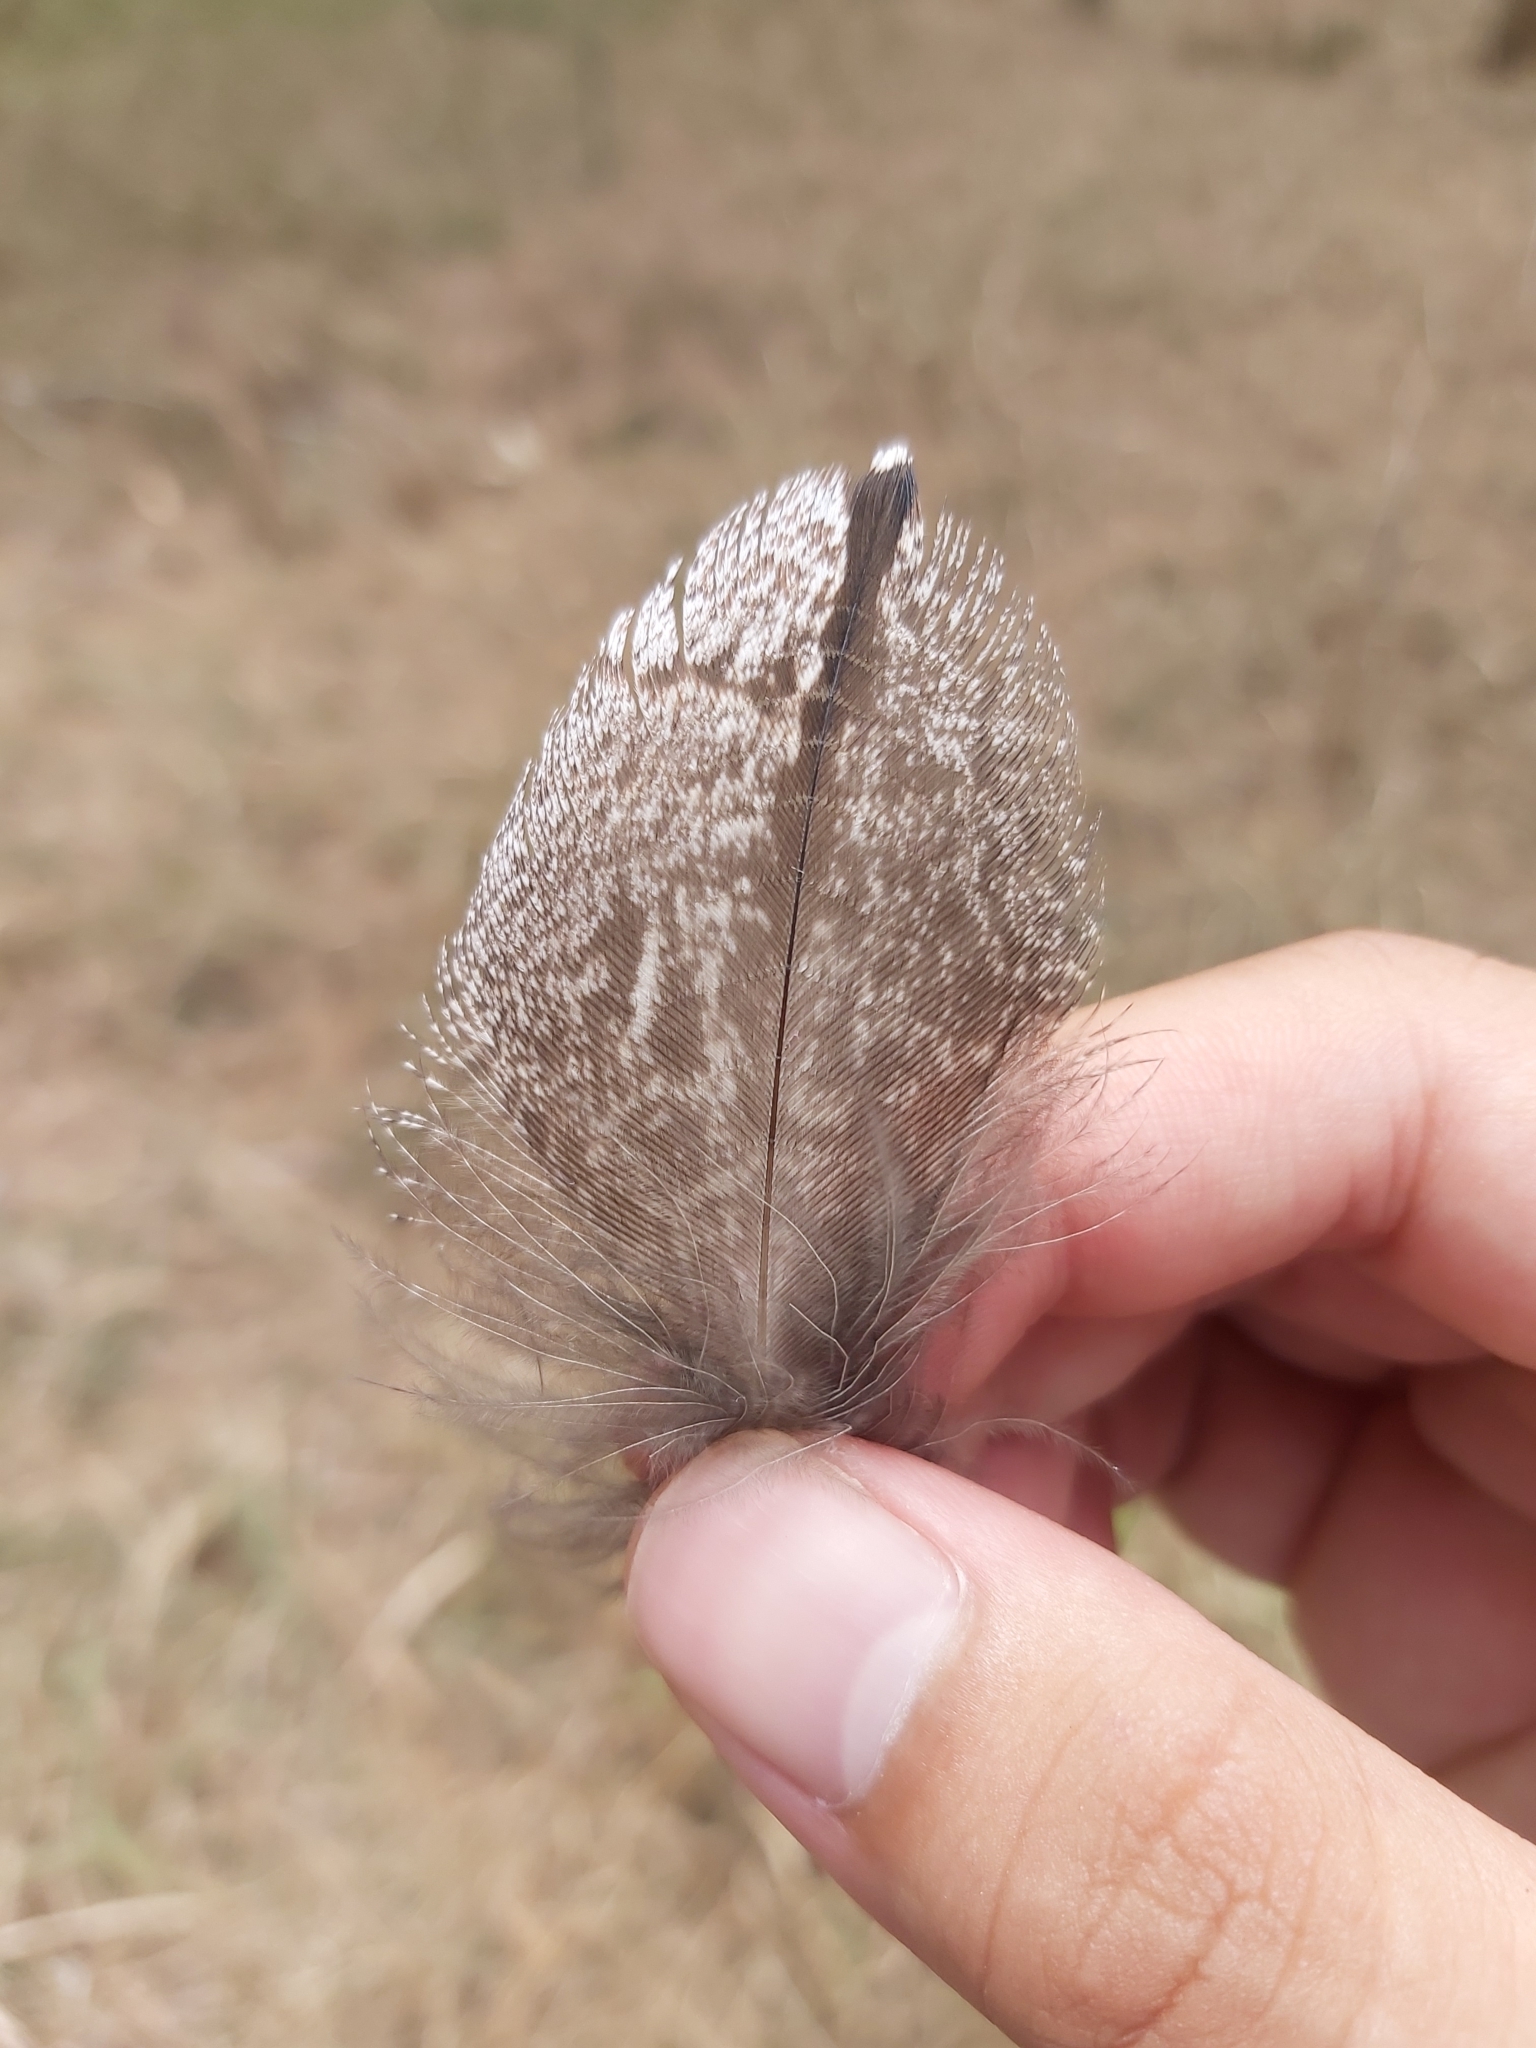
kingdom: Animalia
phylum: Chordata
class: Aves
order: Caprimulgiformes
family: Podargidae
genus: Podargus
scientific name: Podargus strigoides
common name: Tawny frogmouth
